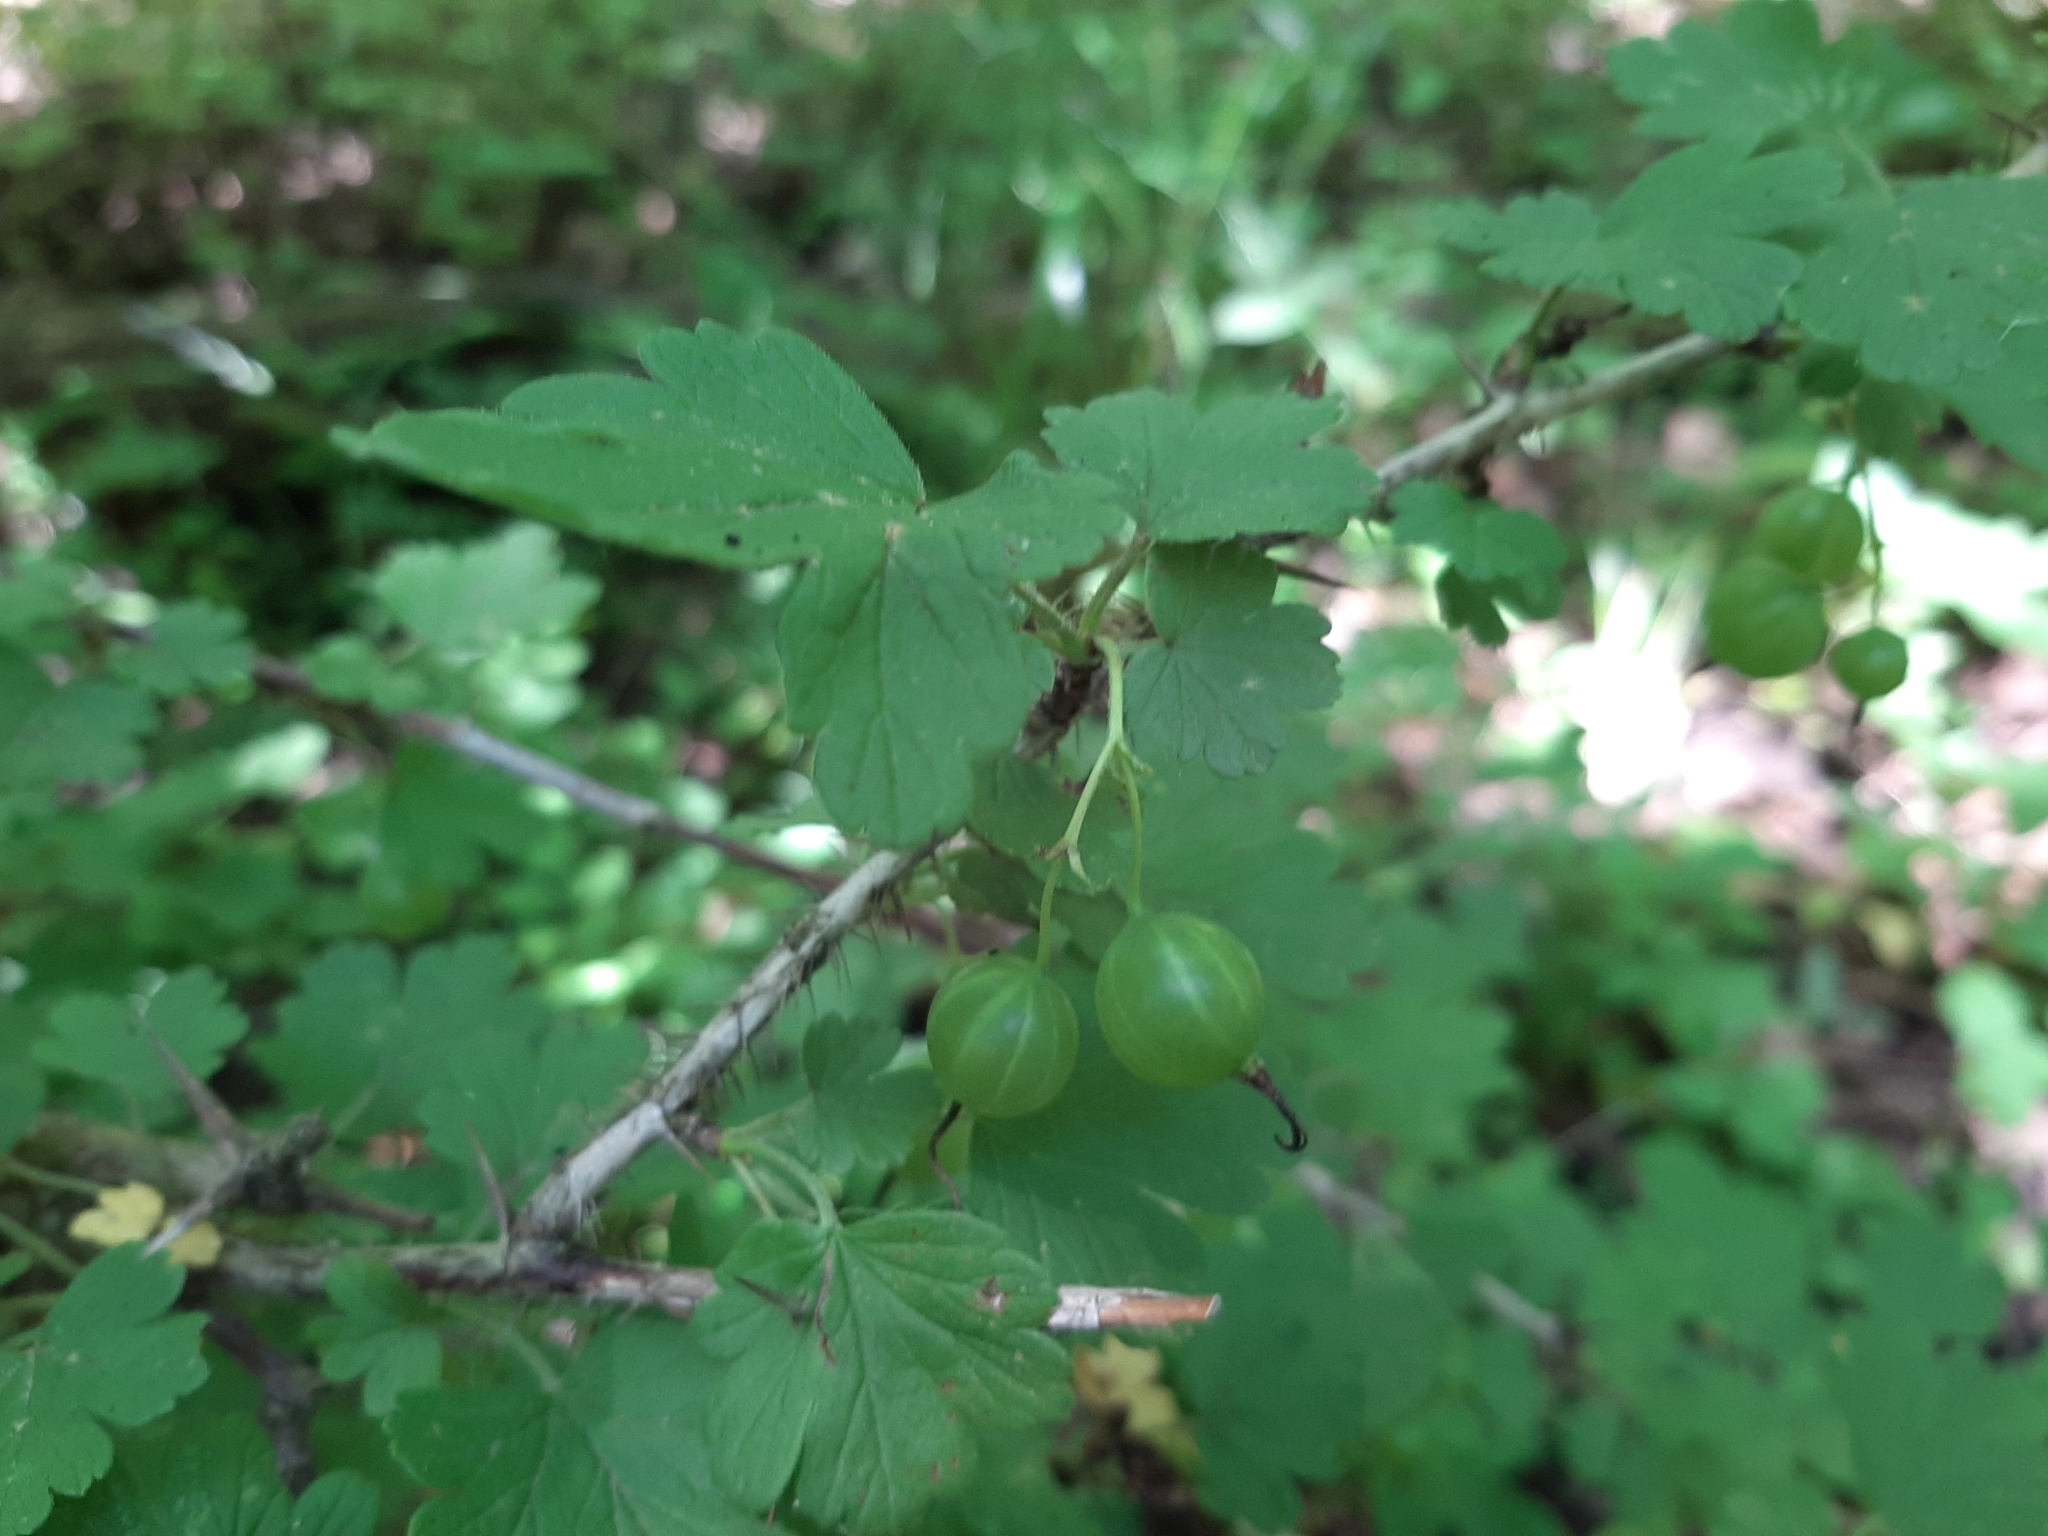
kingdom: Plantae
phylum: Tracheophyta
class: Magnoliopsida
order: Saxifragales
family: Grossulariaceae
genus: Ribes
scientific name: Ribes missouriense
